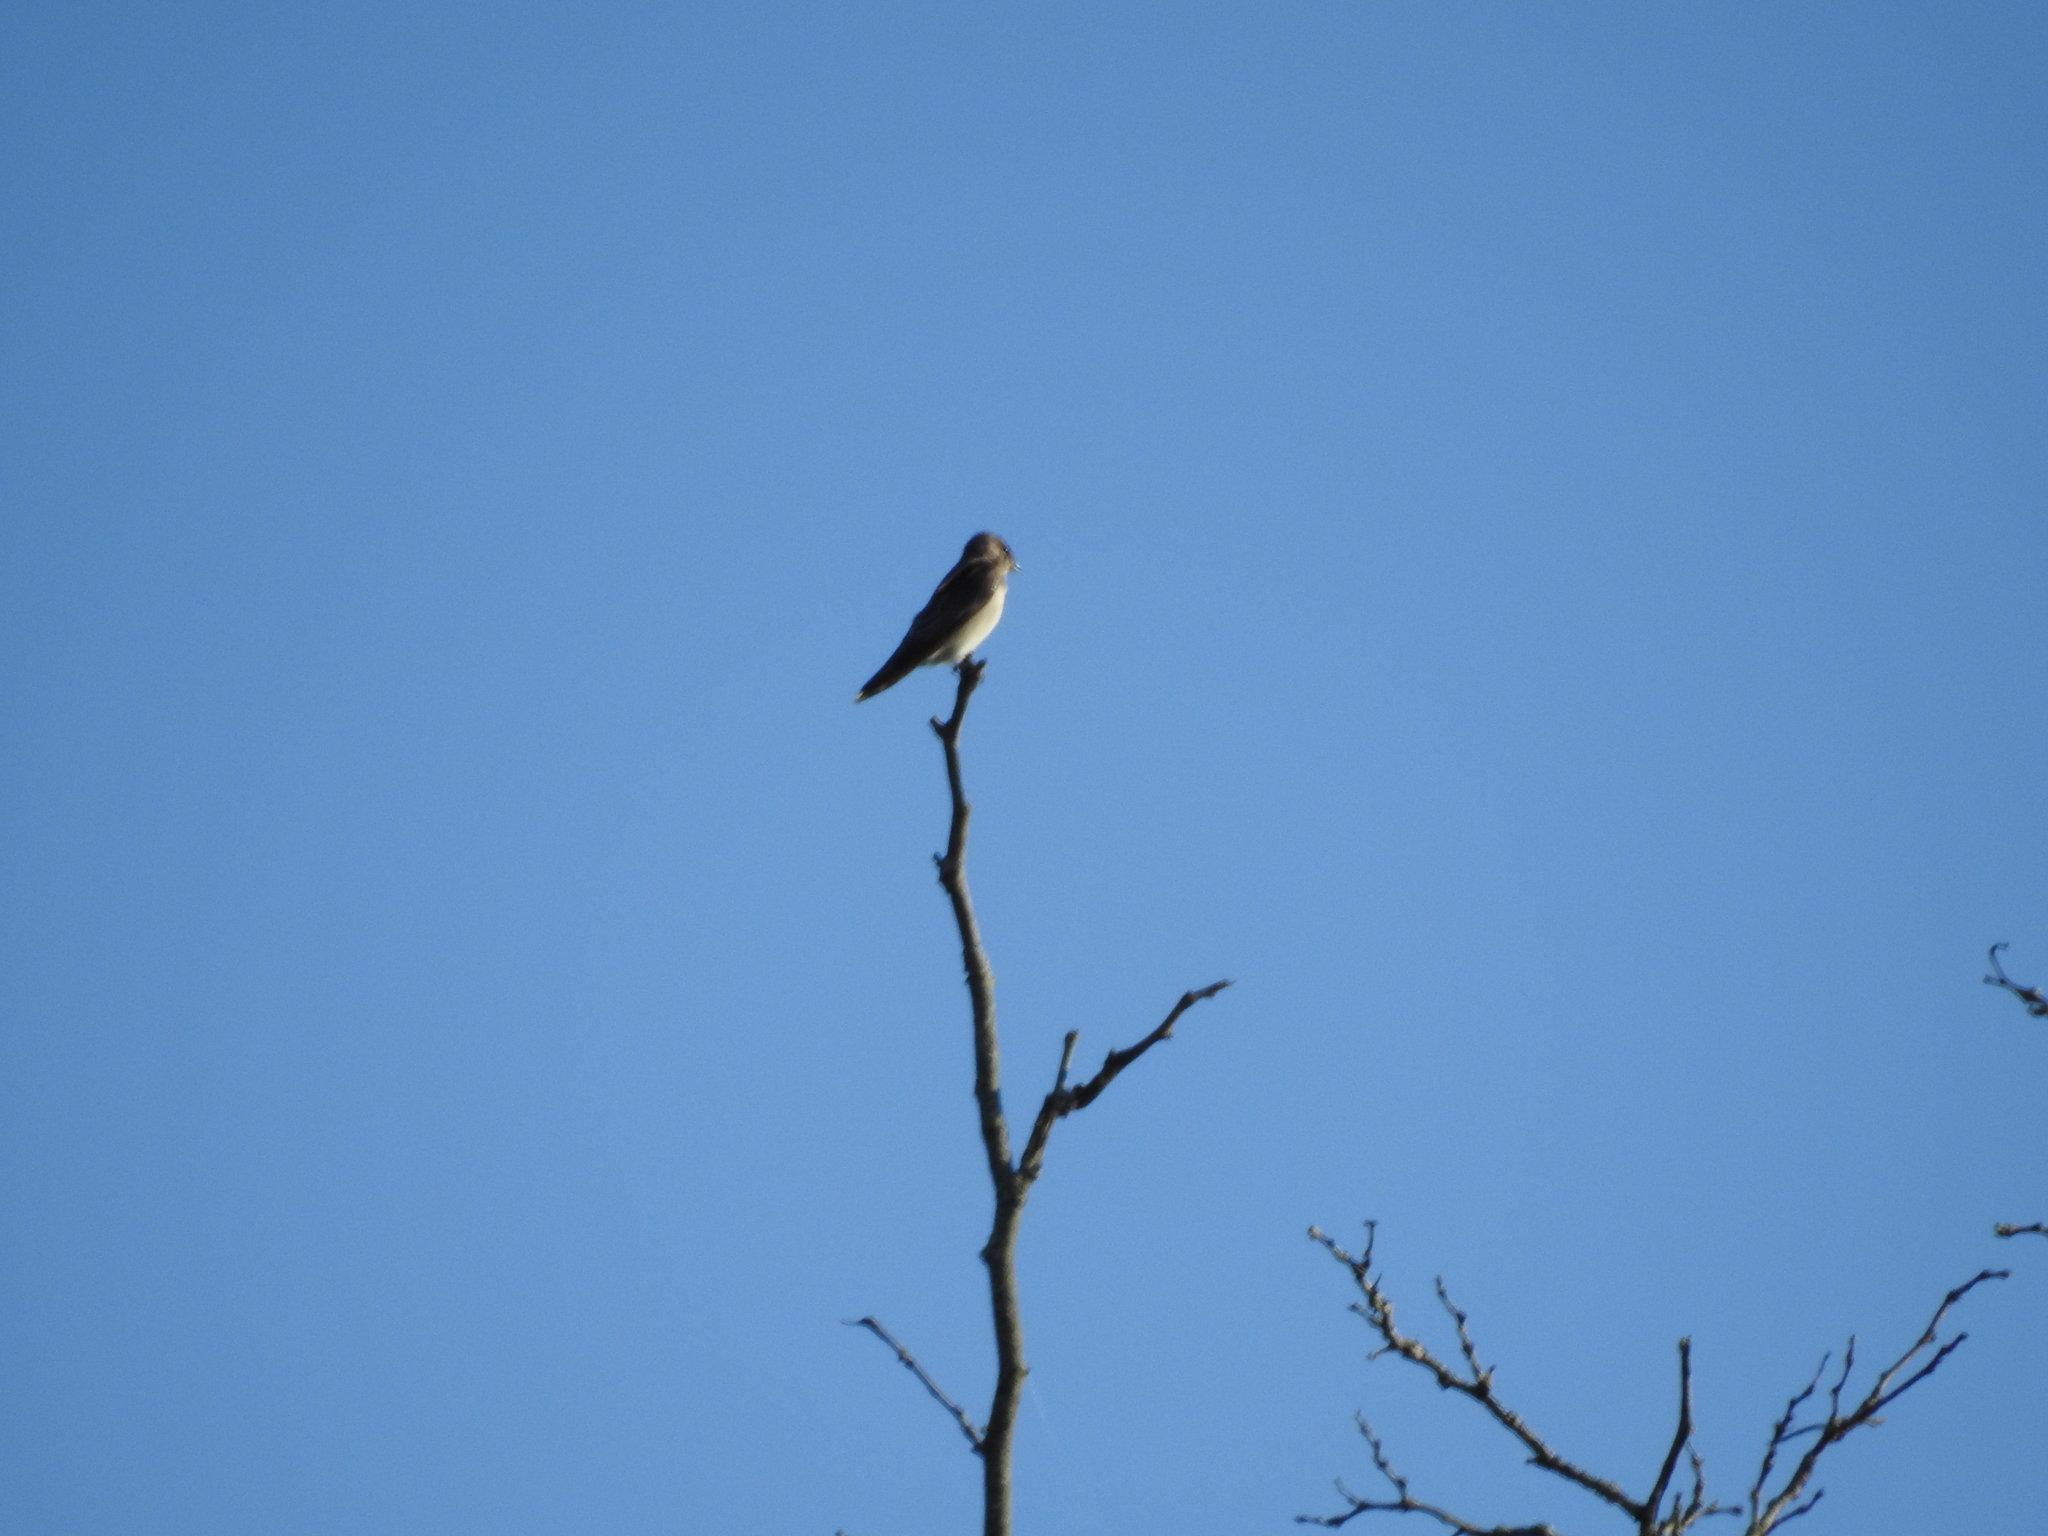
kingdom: Animalia
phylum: Chordata
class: Aves
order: Passeriformes
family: Hirundinidae
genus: Stelgidopteryx
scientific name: Stelgidopteryx serripennis
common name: Northern rough-winged swallow
